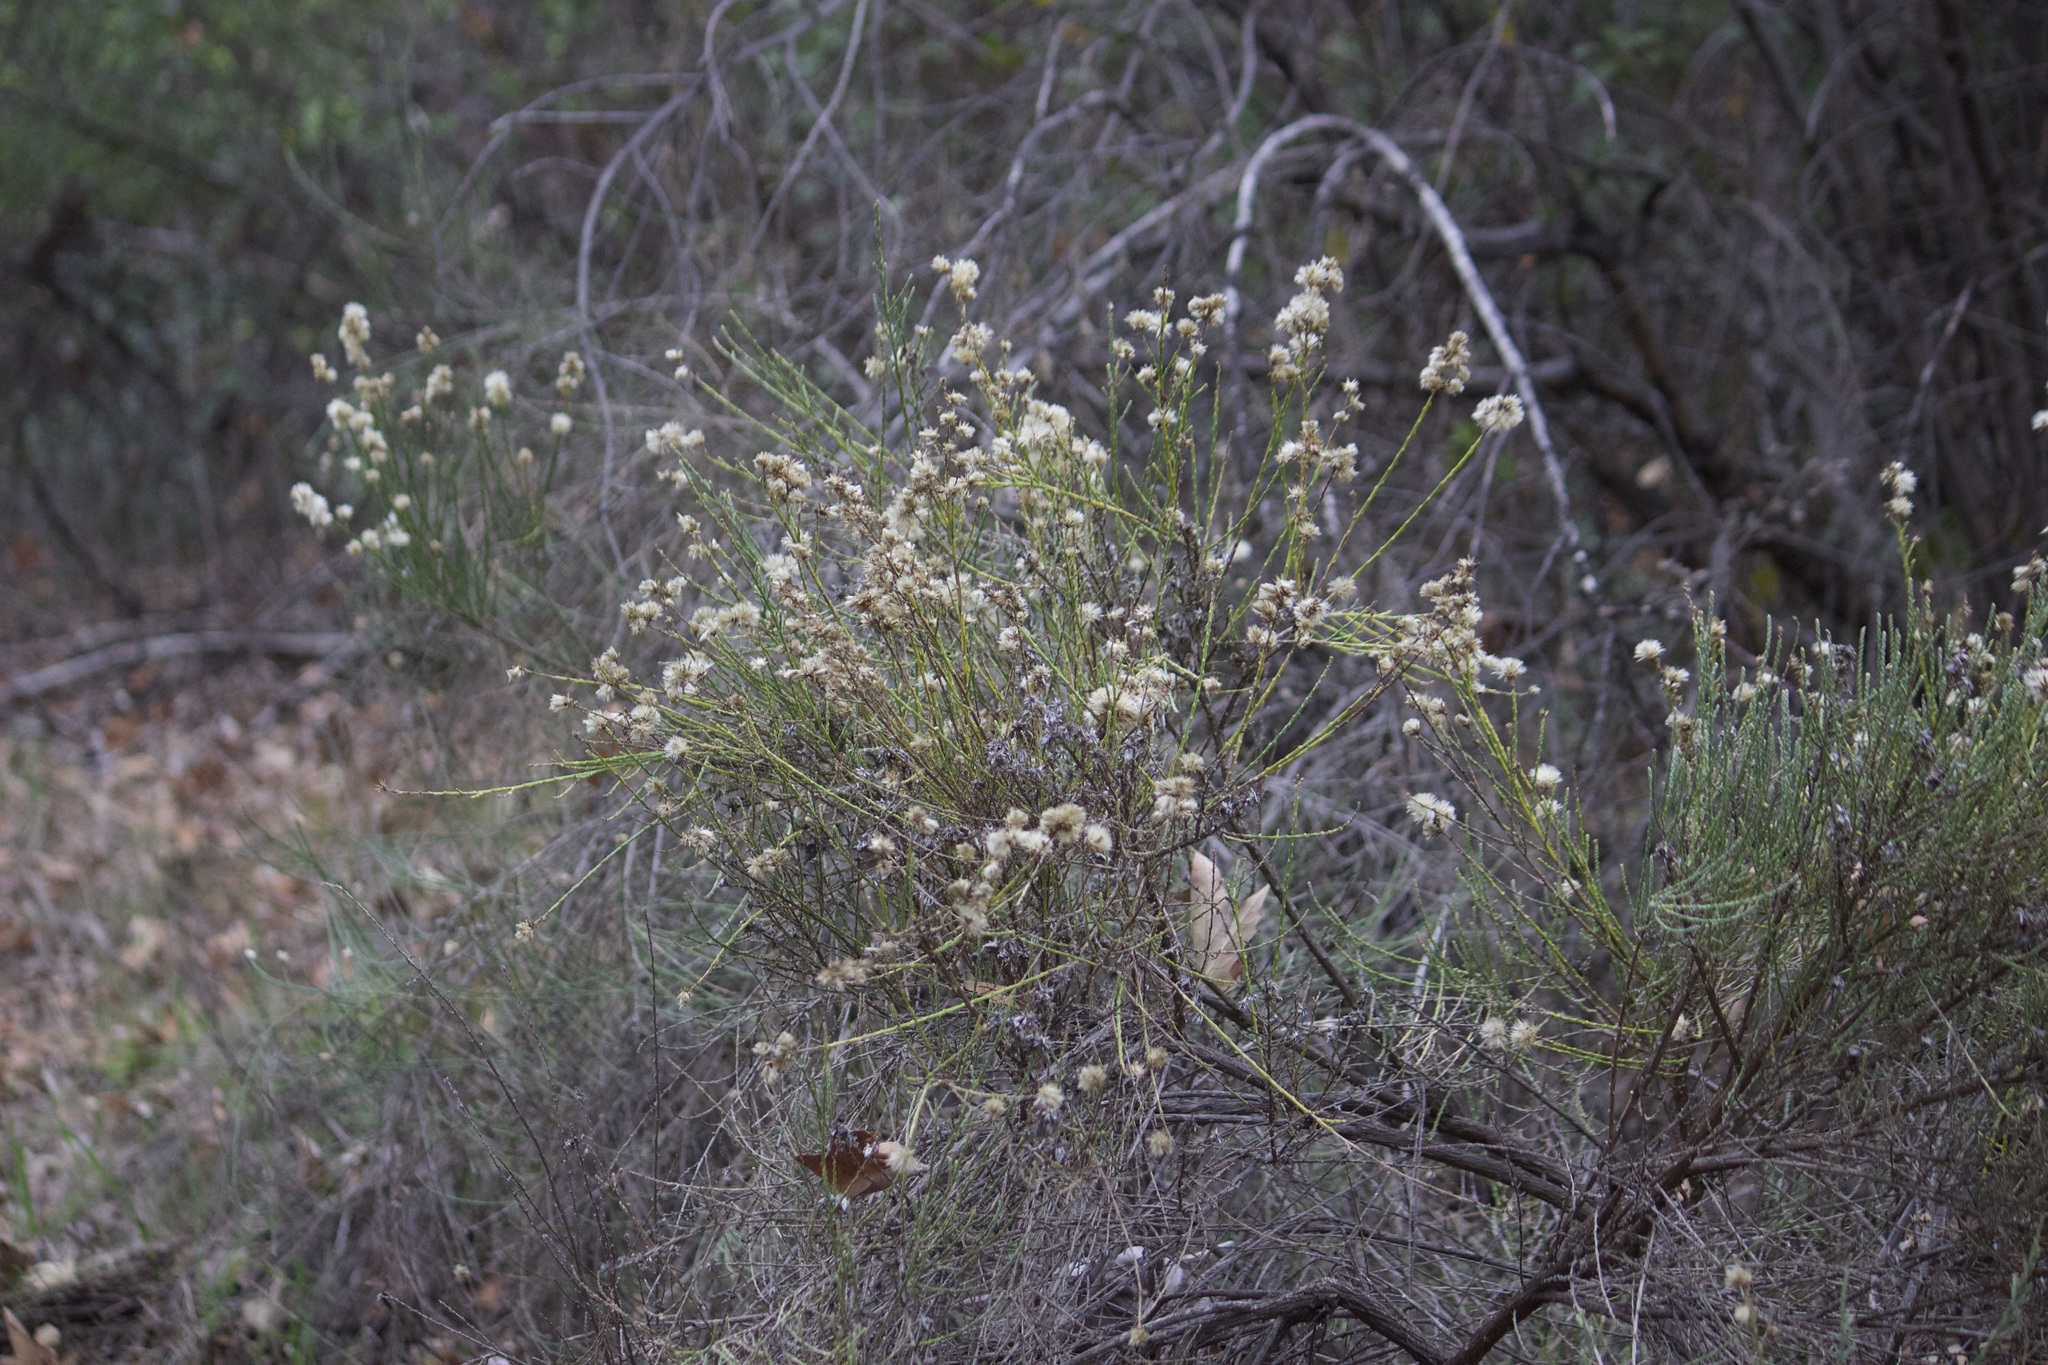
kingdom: Plantae
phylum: Tracheophyta
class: Magnoliopsida
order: Asterales
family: Asteraceae
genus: Lepidospartum
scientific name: Lepidospartum squamatum
